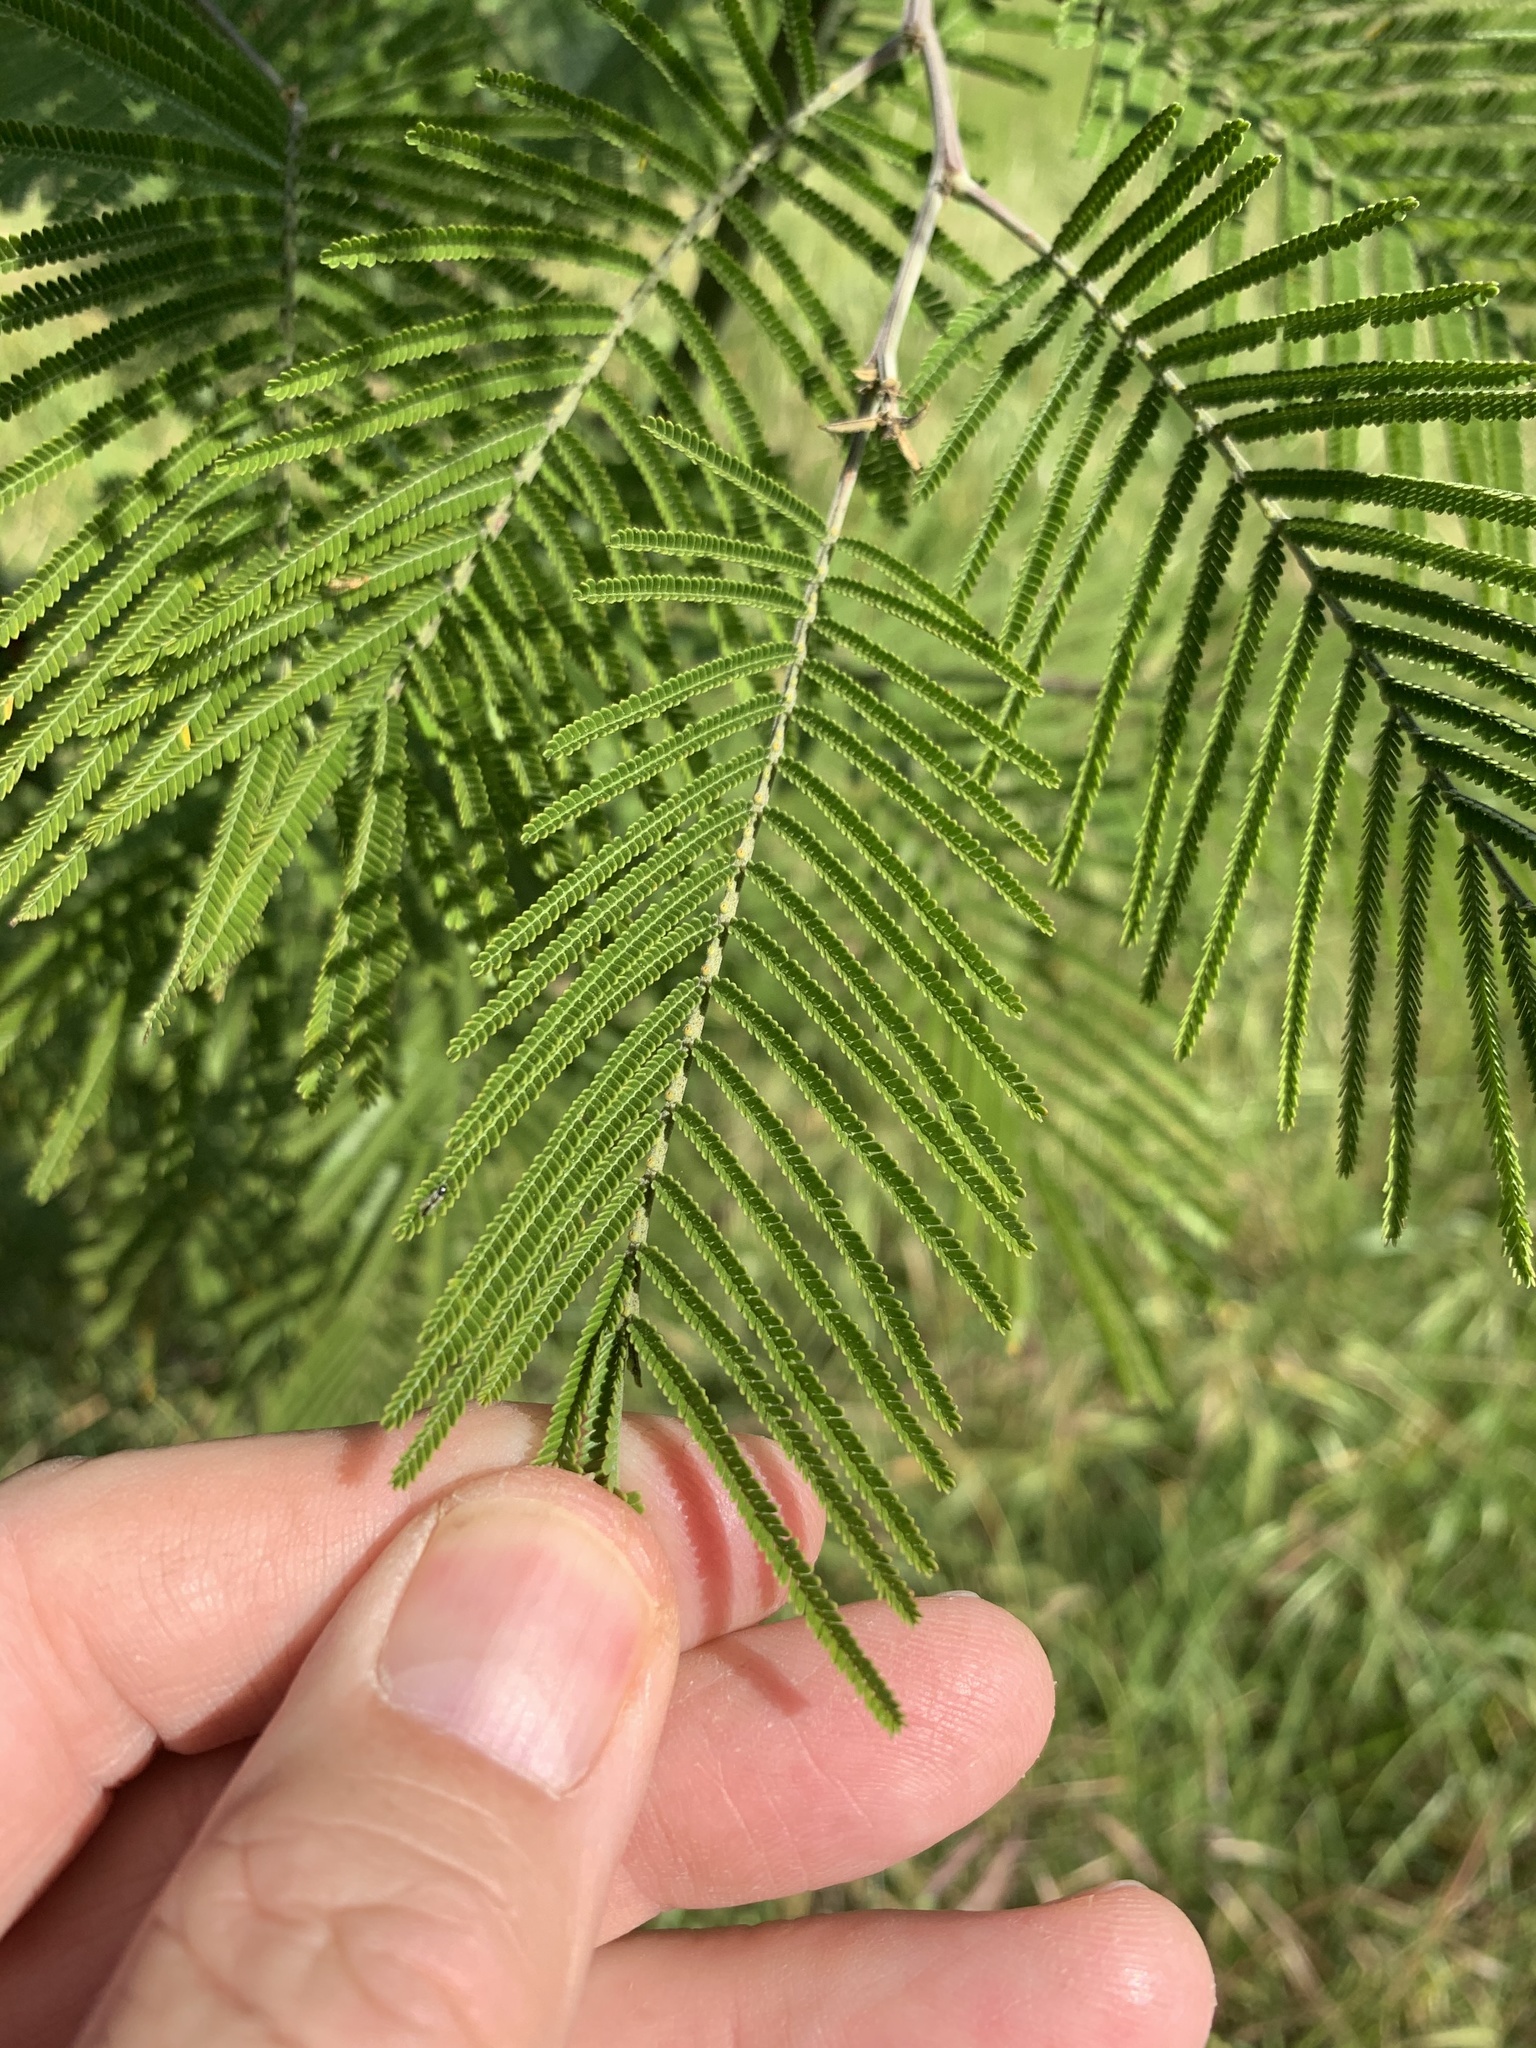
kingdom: Plantae
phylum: Tracheophyta
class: Magnoliopsida
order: Fabales
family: Fabaceae
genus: Acacia
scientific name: Acacia mearnsii
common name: Black wattle
